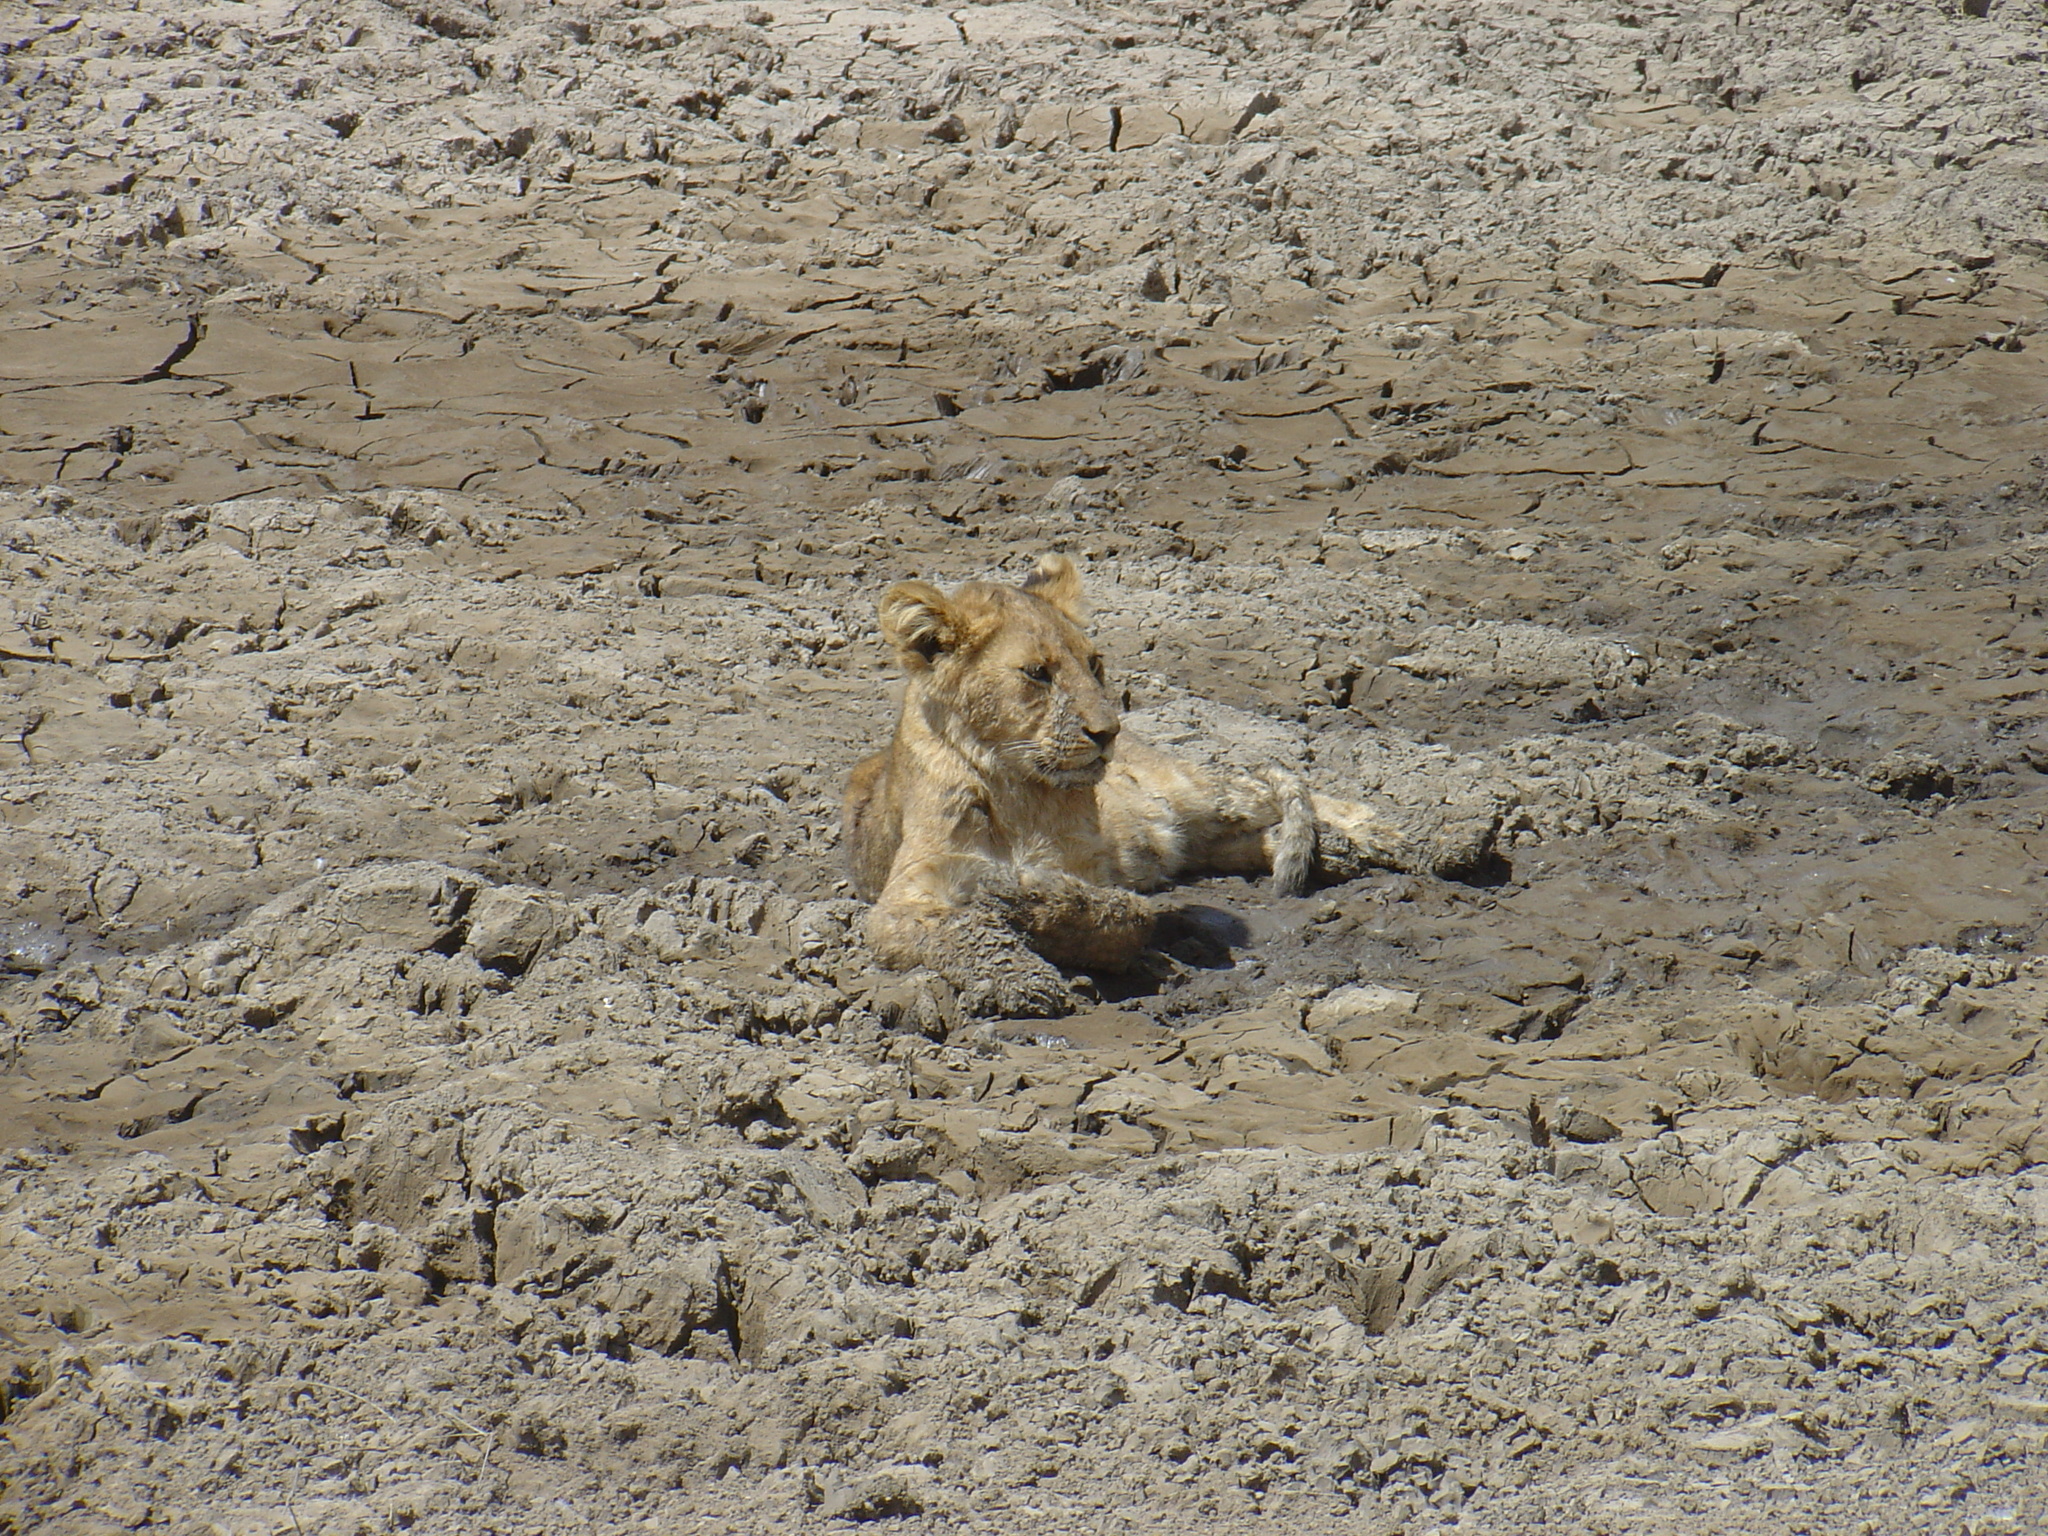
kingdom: Animalia
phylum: Chordata
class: Mammalia
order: Carnivora
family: Felidae
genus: Panthera
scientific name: Panthera leo
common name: Lion
